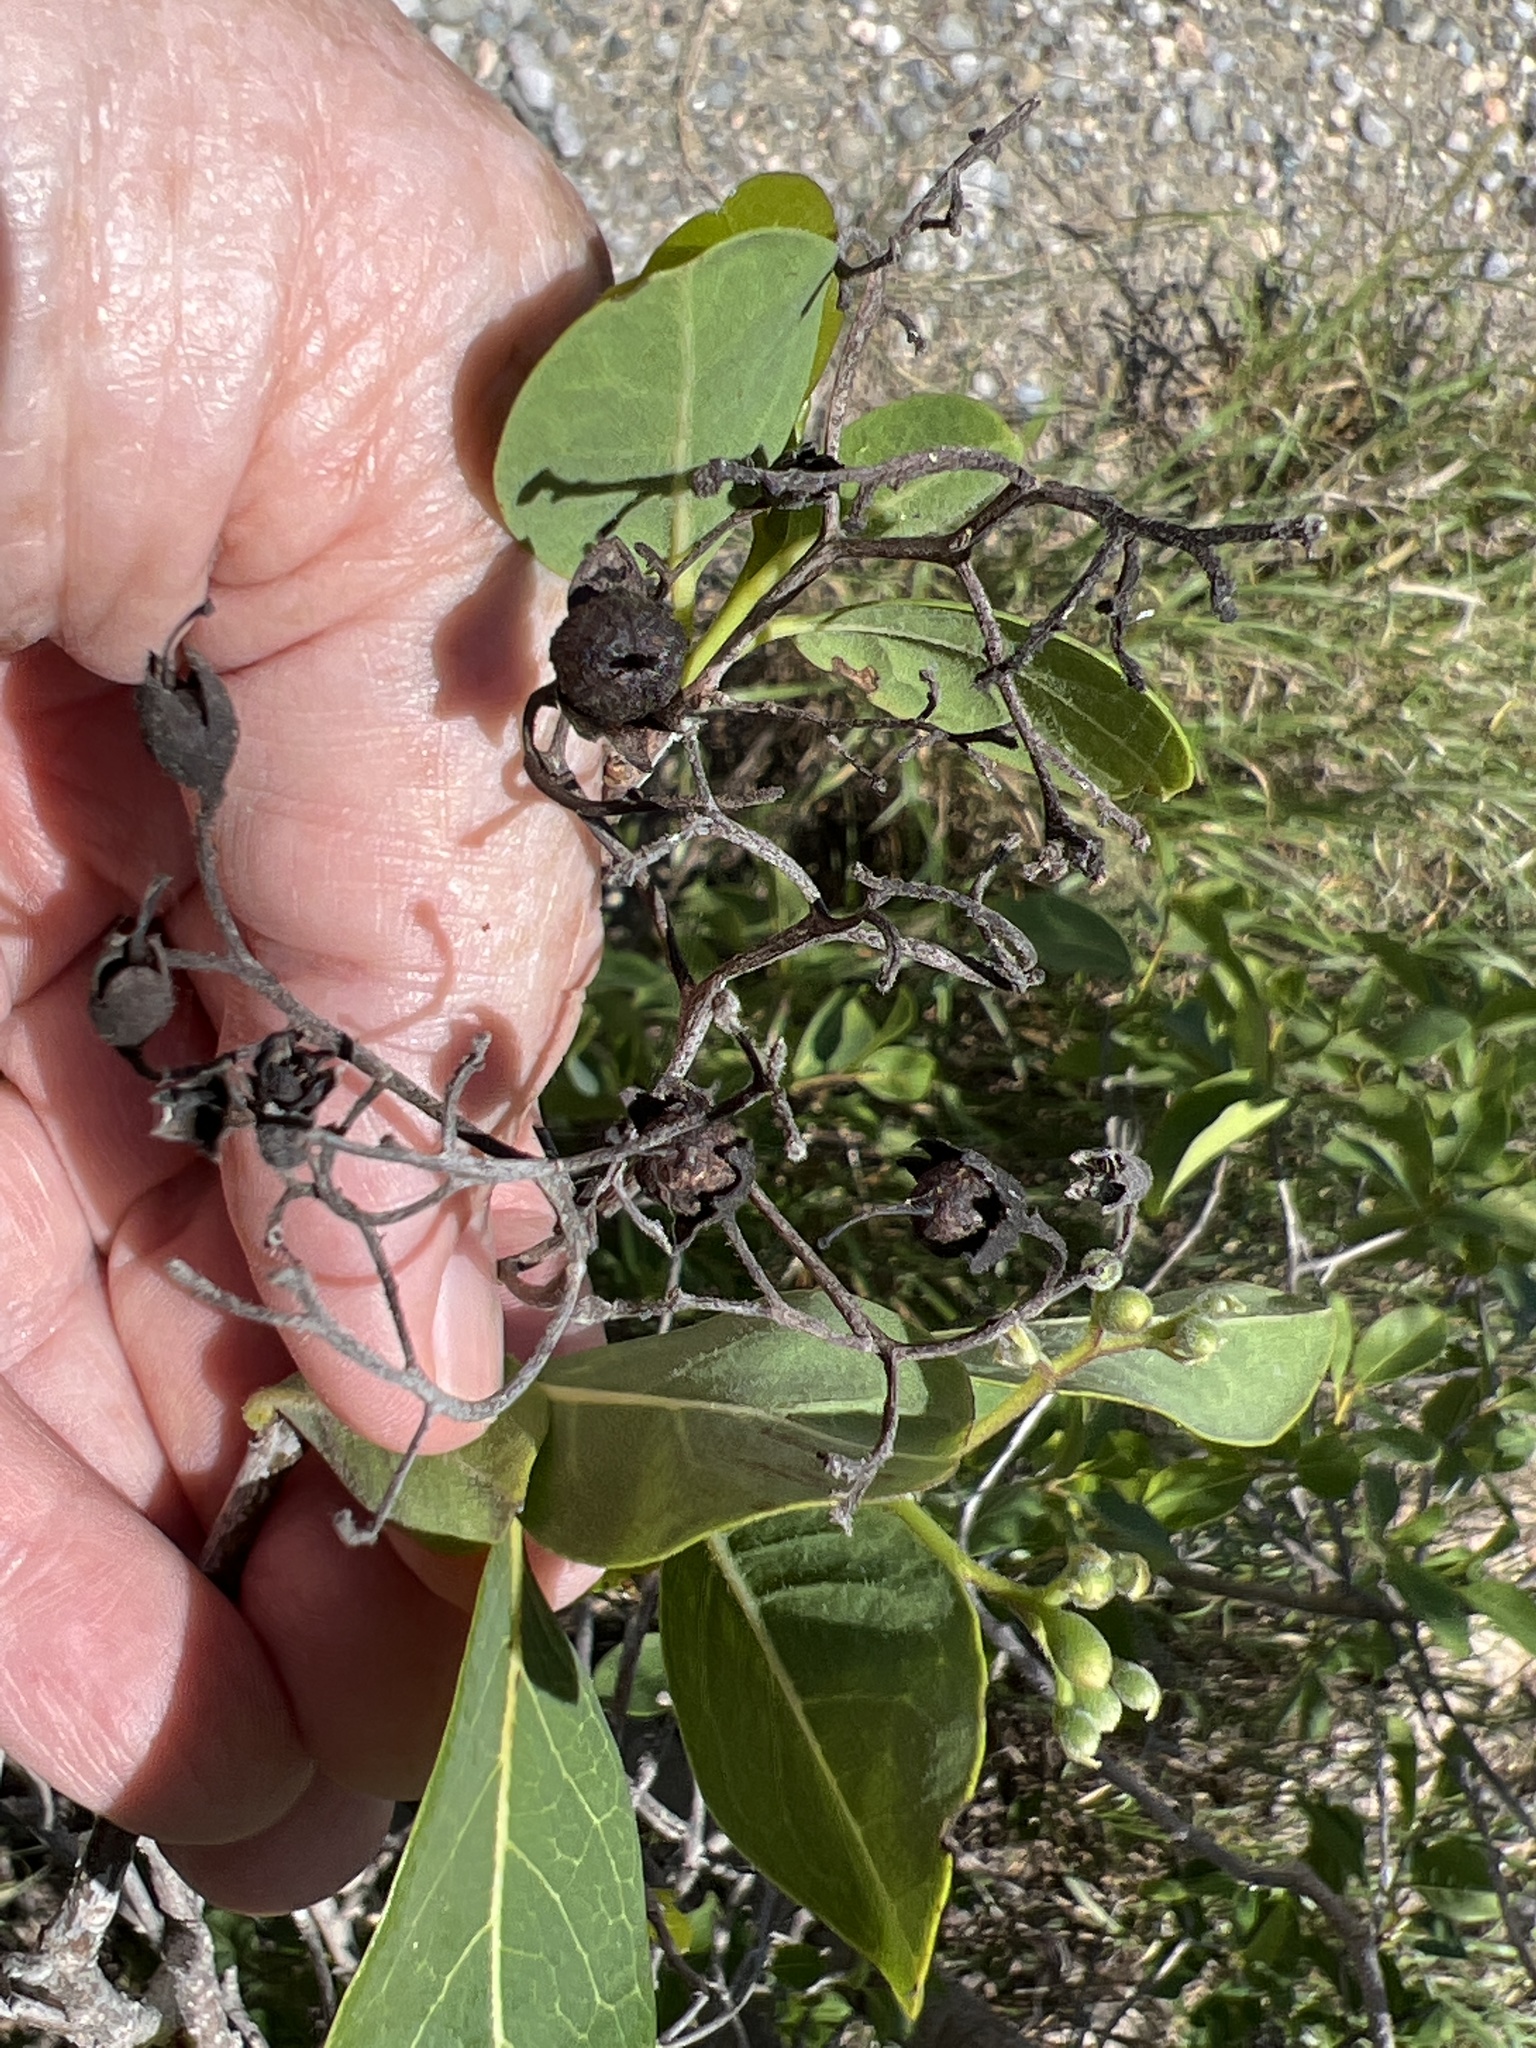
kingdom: Plantae
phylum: Tracheophyta
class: Magnoliopsida
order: Boraginales
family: Ehretiaceae
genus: Bourreria
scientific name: Bourreria succulenta
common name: Cherry
